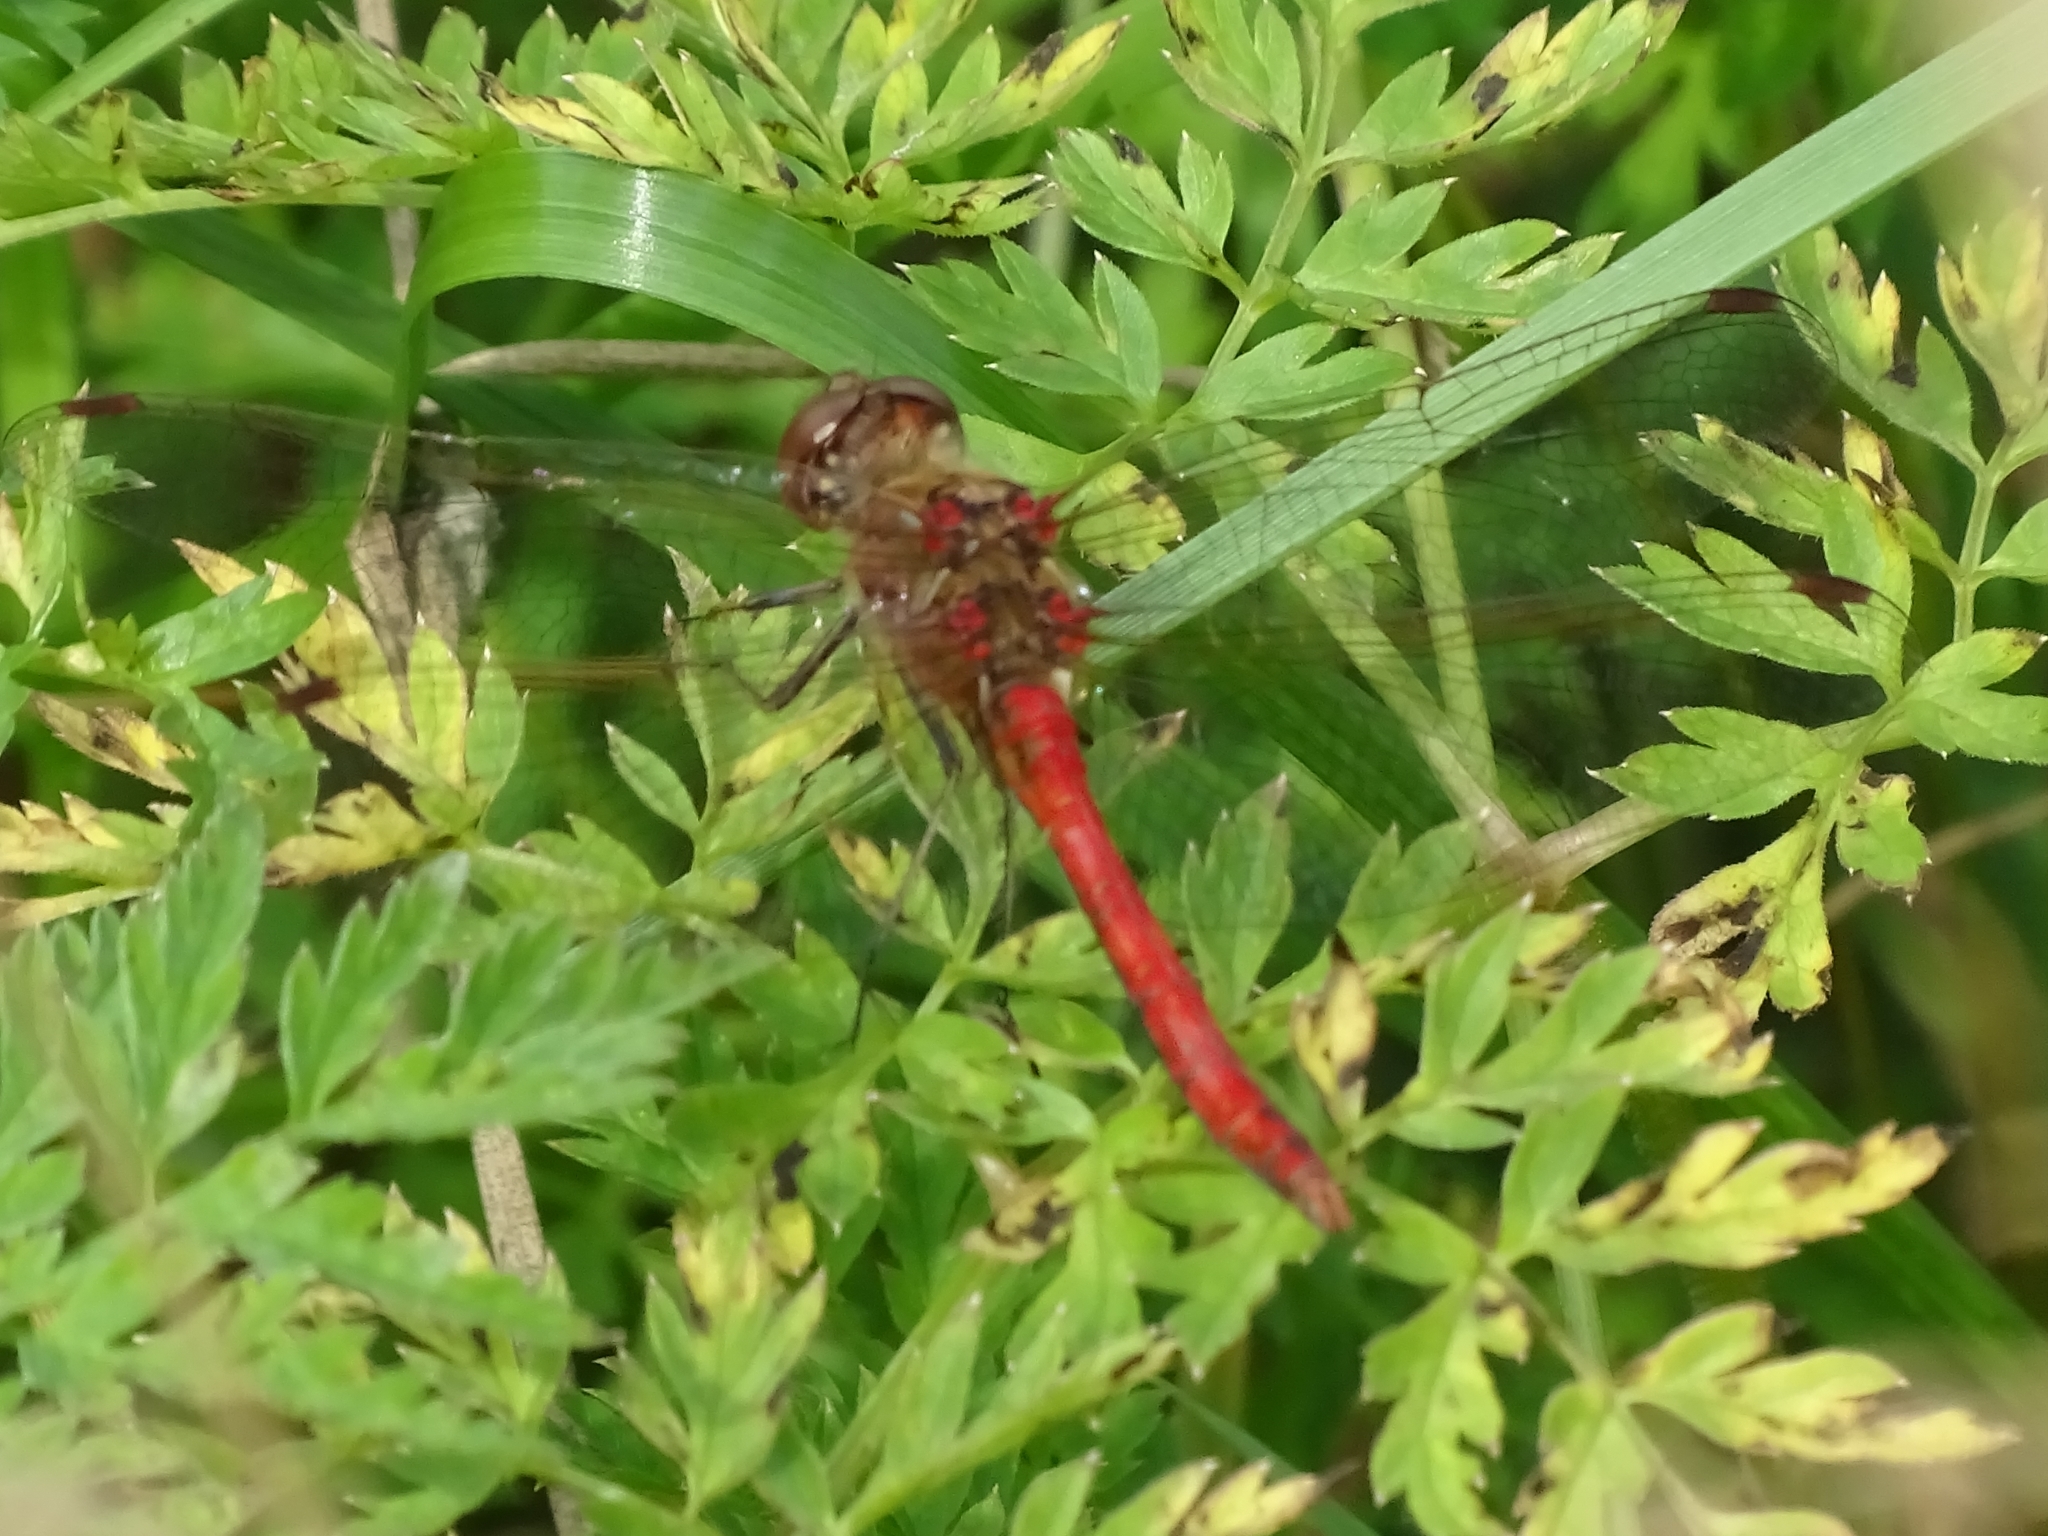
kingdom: Animalia
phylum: Arthropoda
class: Insecta
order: Odonata
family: Libellulidae
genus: Sympetrum
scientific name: Sympetrum vulgatum
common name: Vagrant darter
